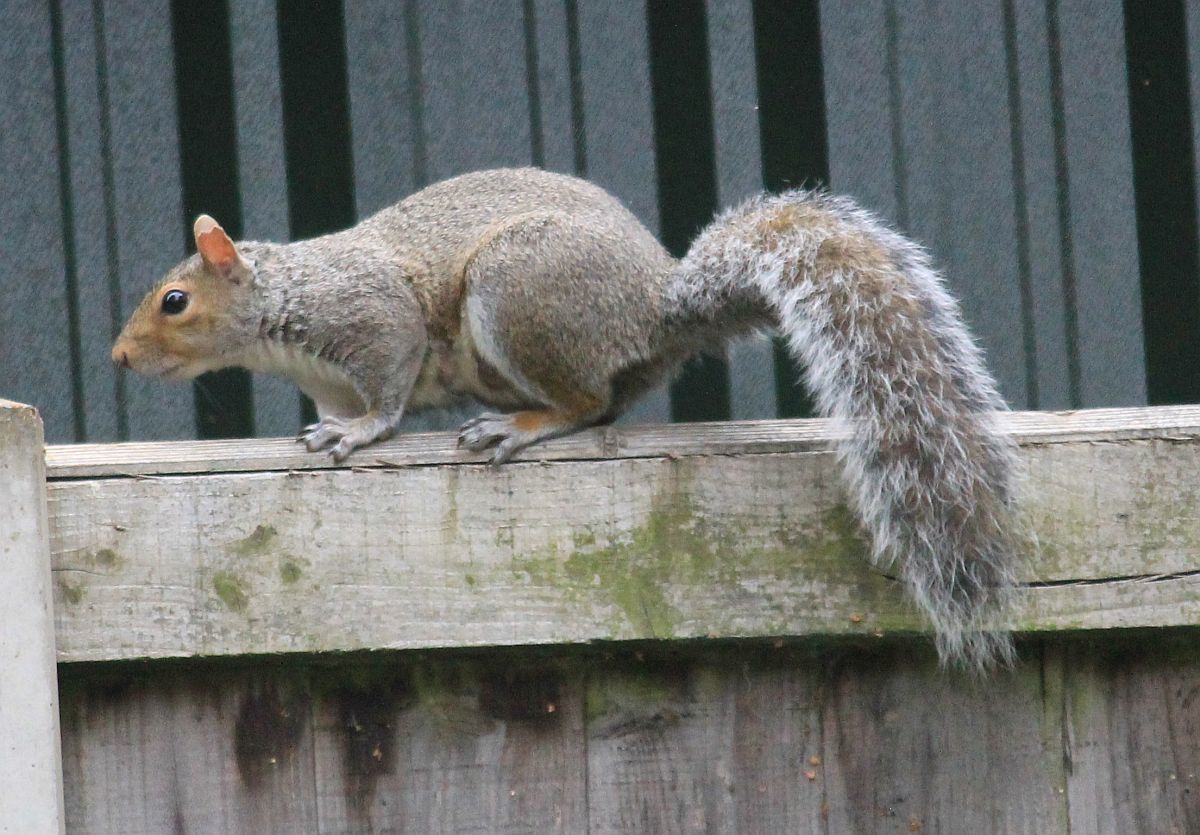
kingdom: Animalia
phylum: Chordata
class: Mammalia
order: Rodentia
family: Sciuridae
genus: Sciurus
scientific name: Sciurus carolinensis
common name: Eastern gray squirrel
